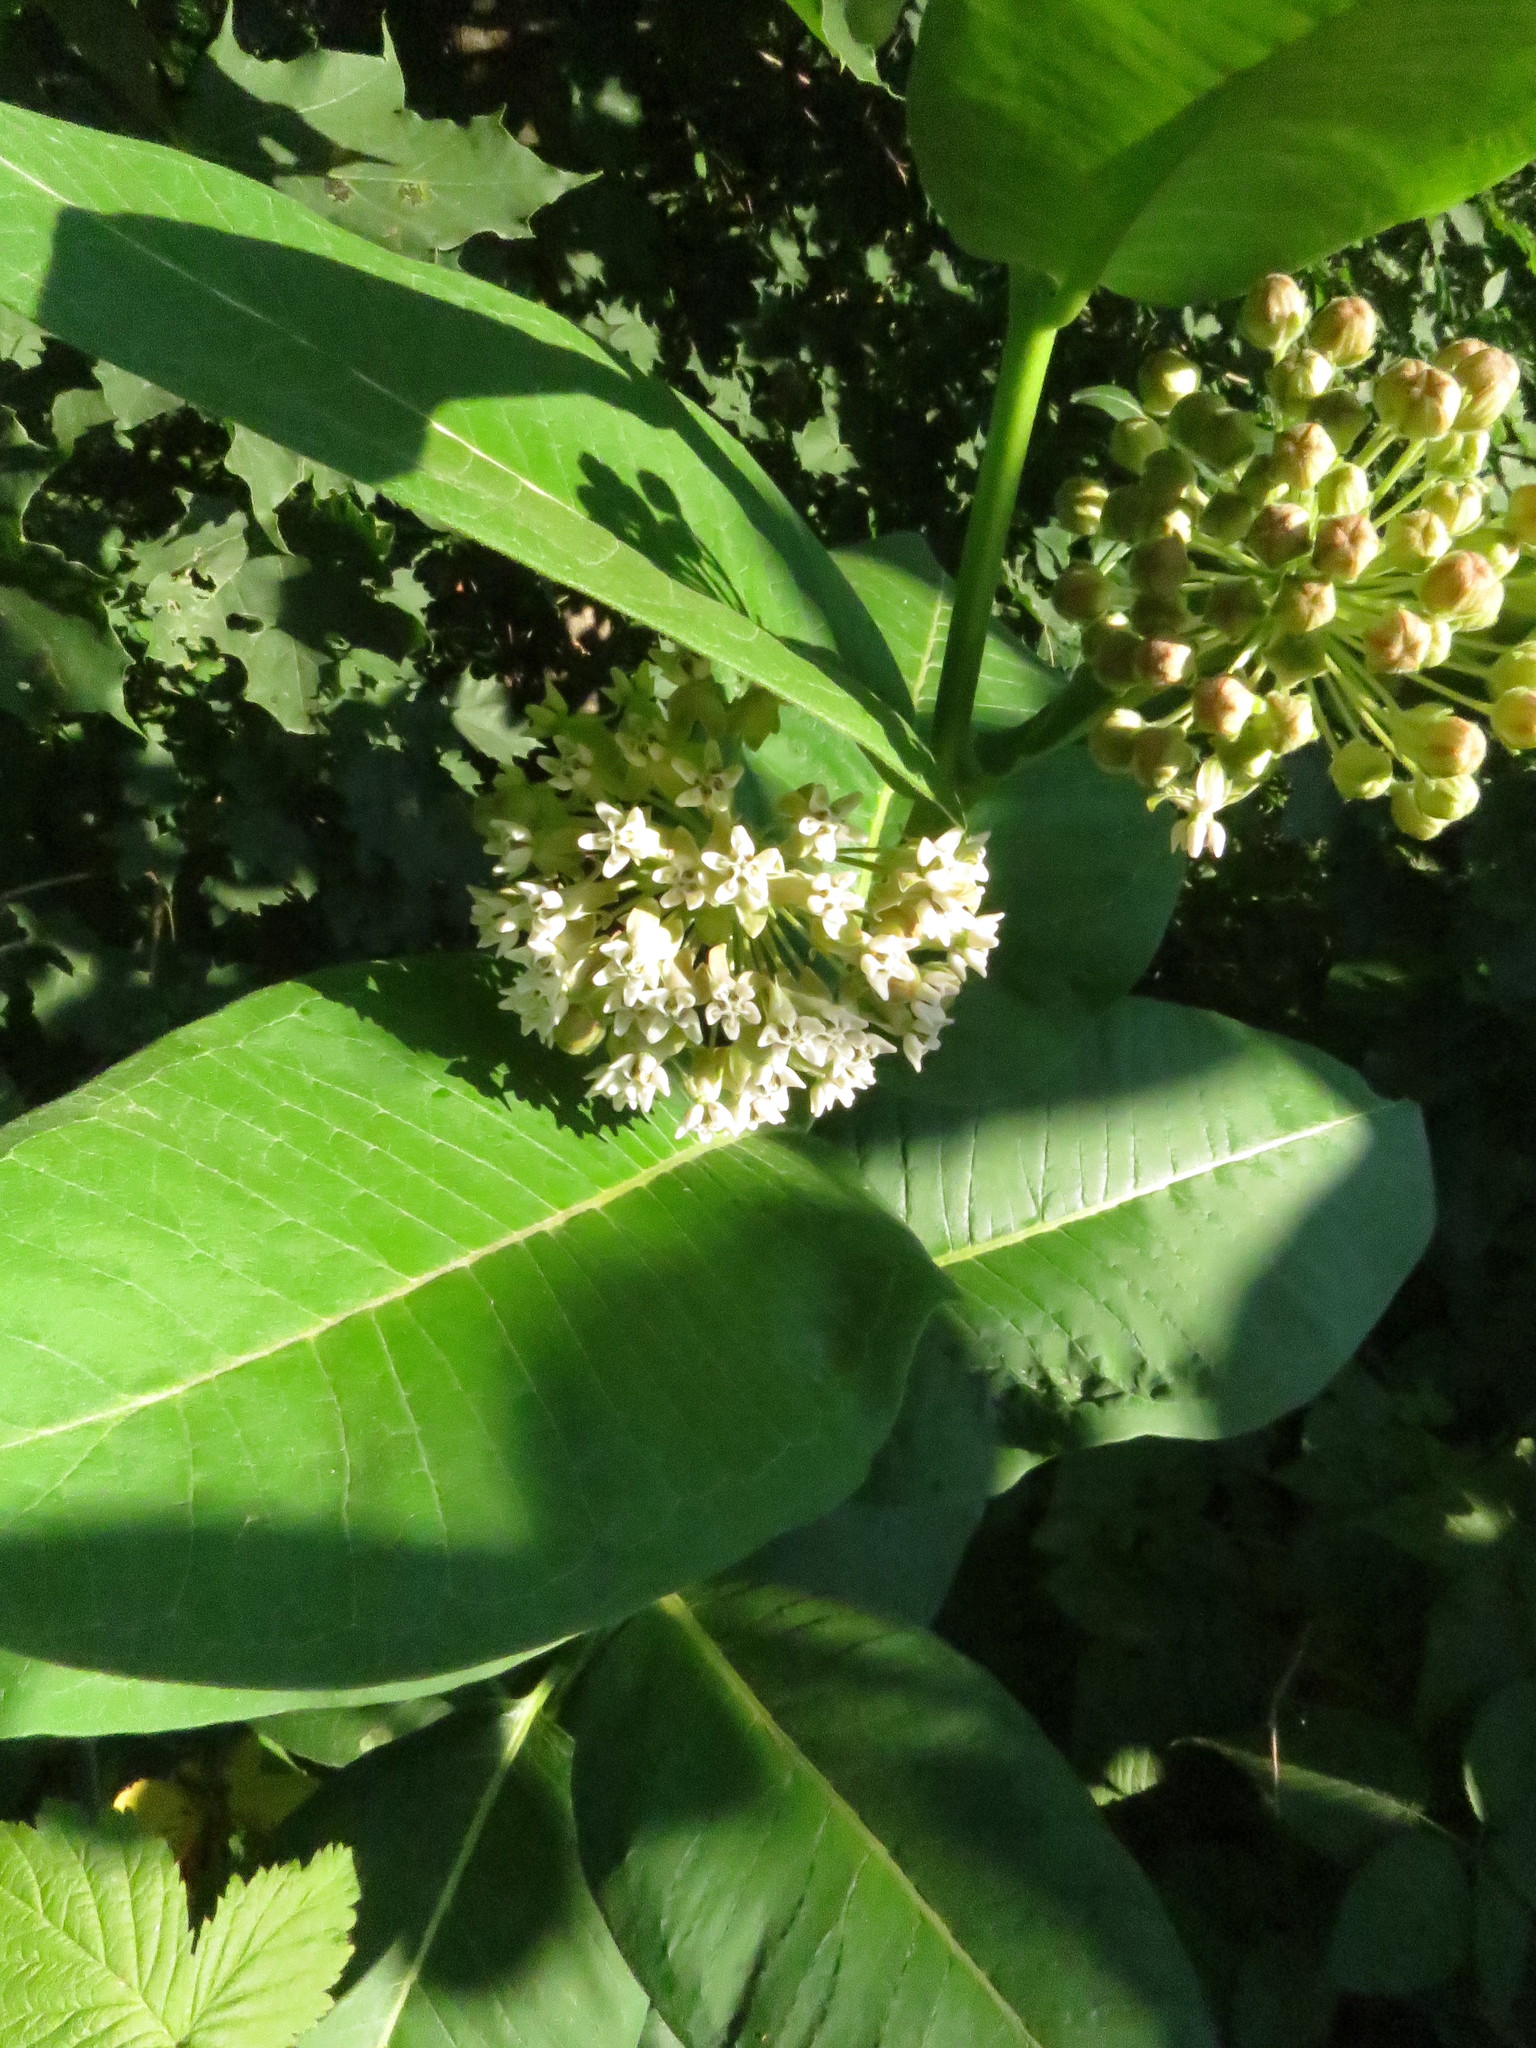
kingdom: Plantae
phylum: Tracheophyta
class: Magnoliopsida
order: Gentianales
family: Apocynaceae
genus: Asclepias
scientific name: Asclepias syriaca
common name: Common milkweed
